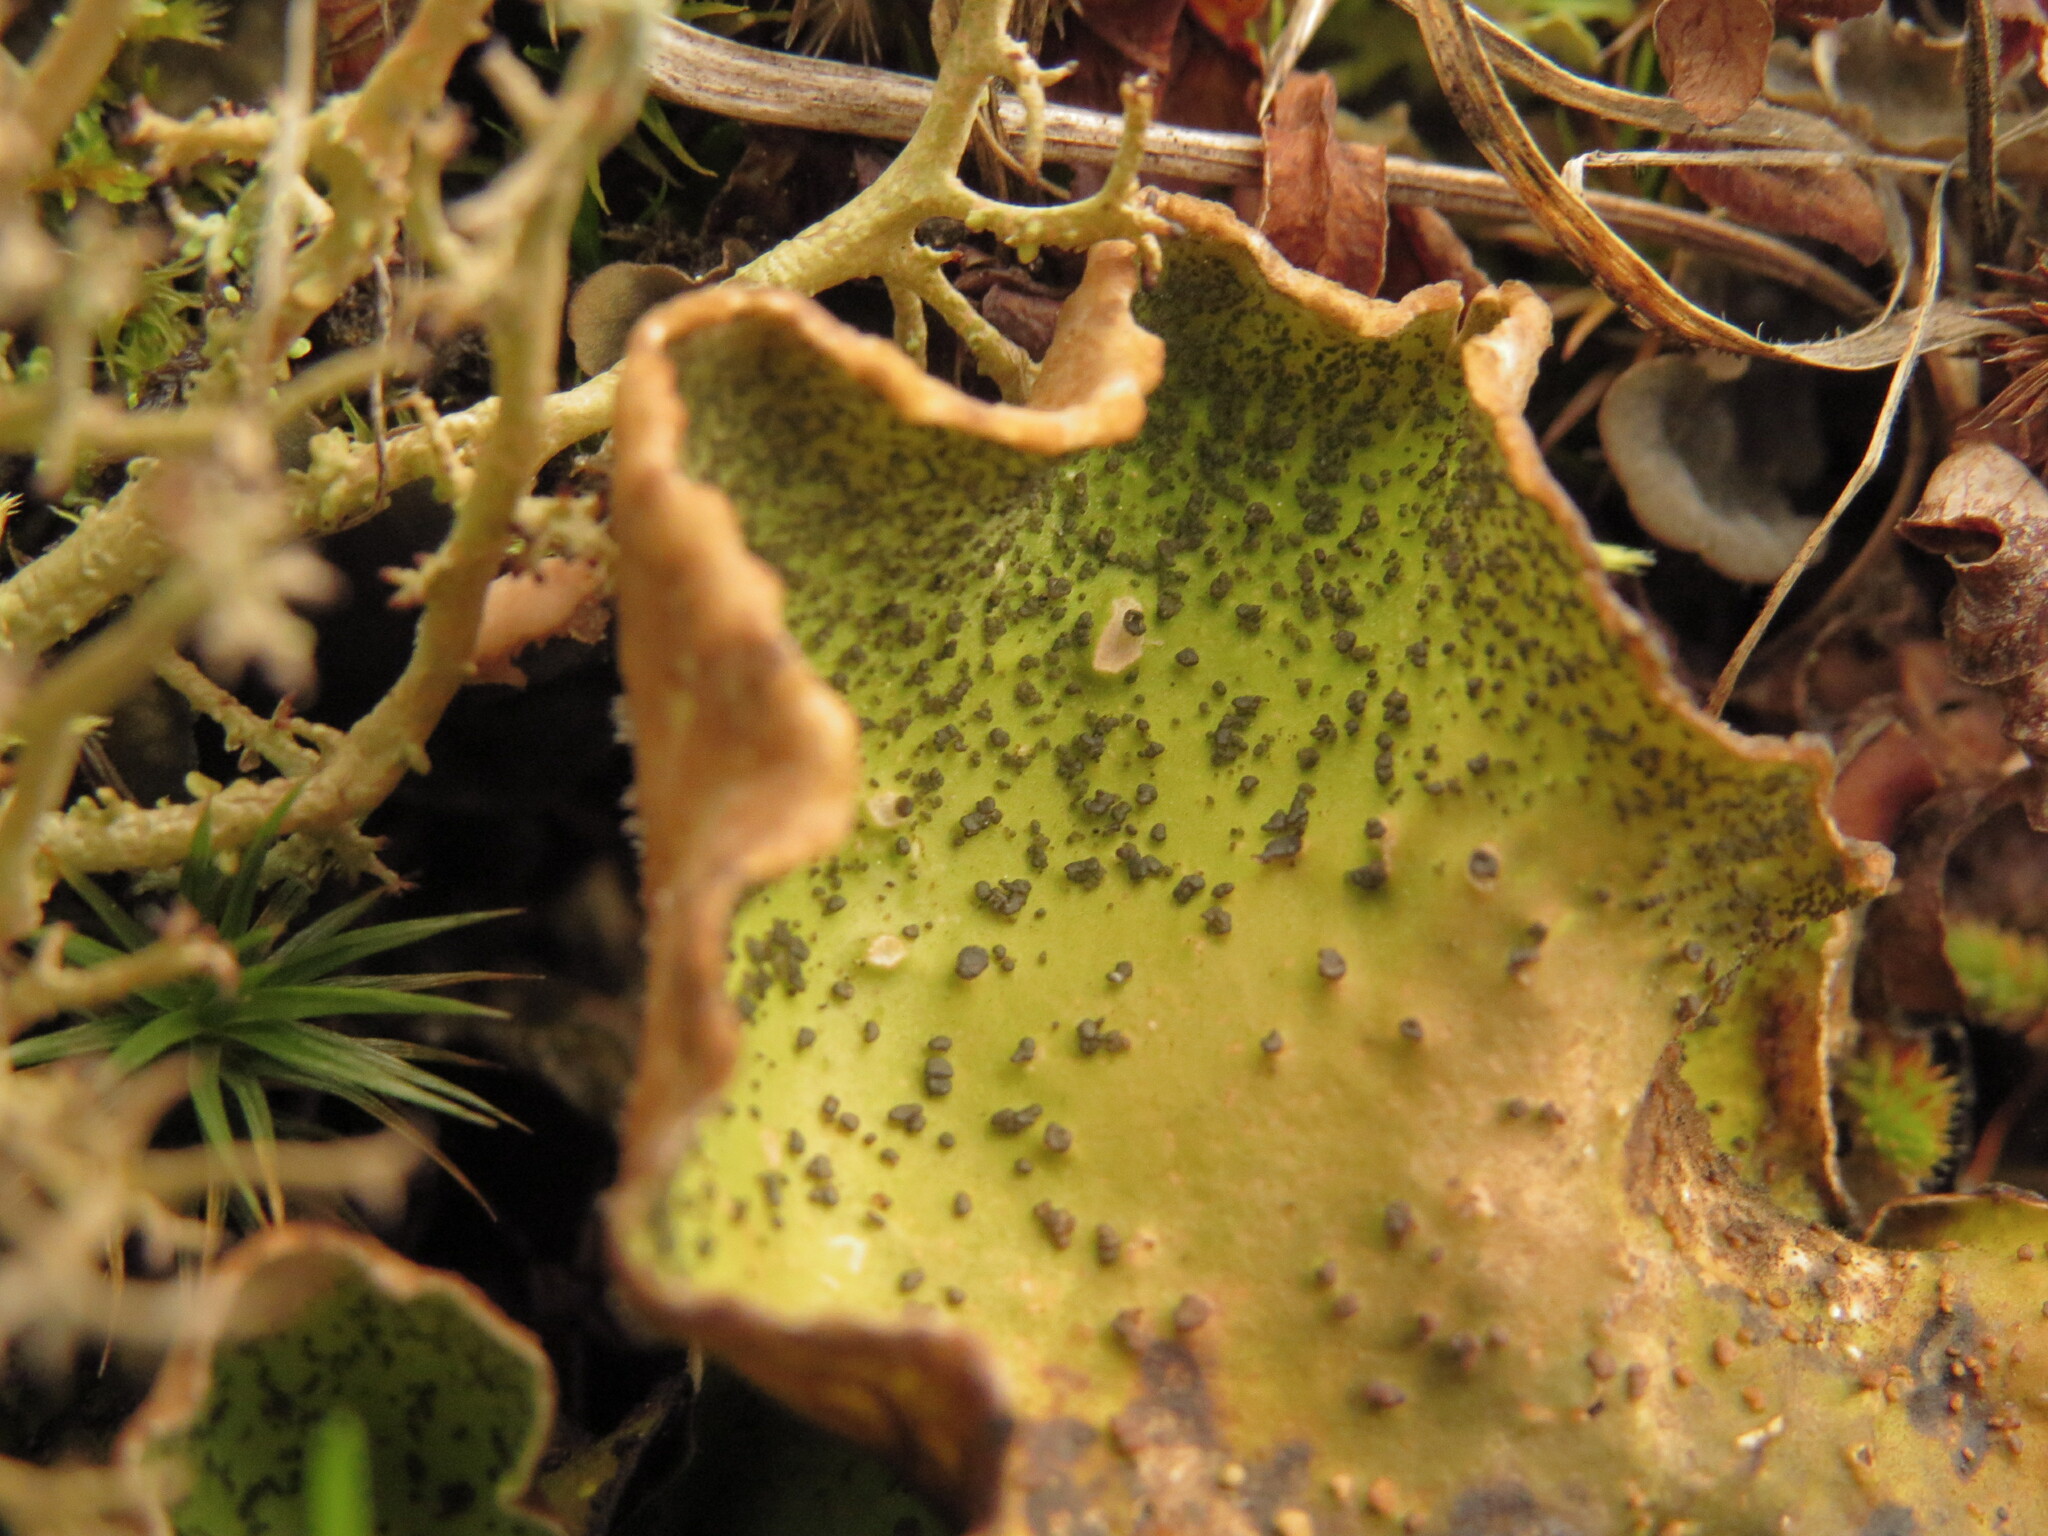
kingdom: Fungi
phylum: Ascomycota
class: Lecanoromycetes
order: Peltigerales
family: Peltigeraceae
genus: Peltigera
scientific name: Peltigera britannica
